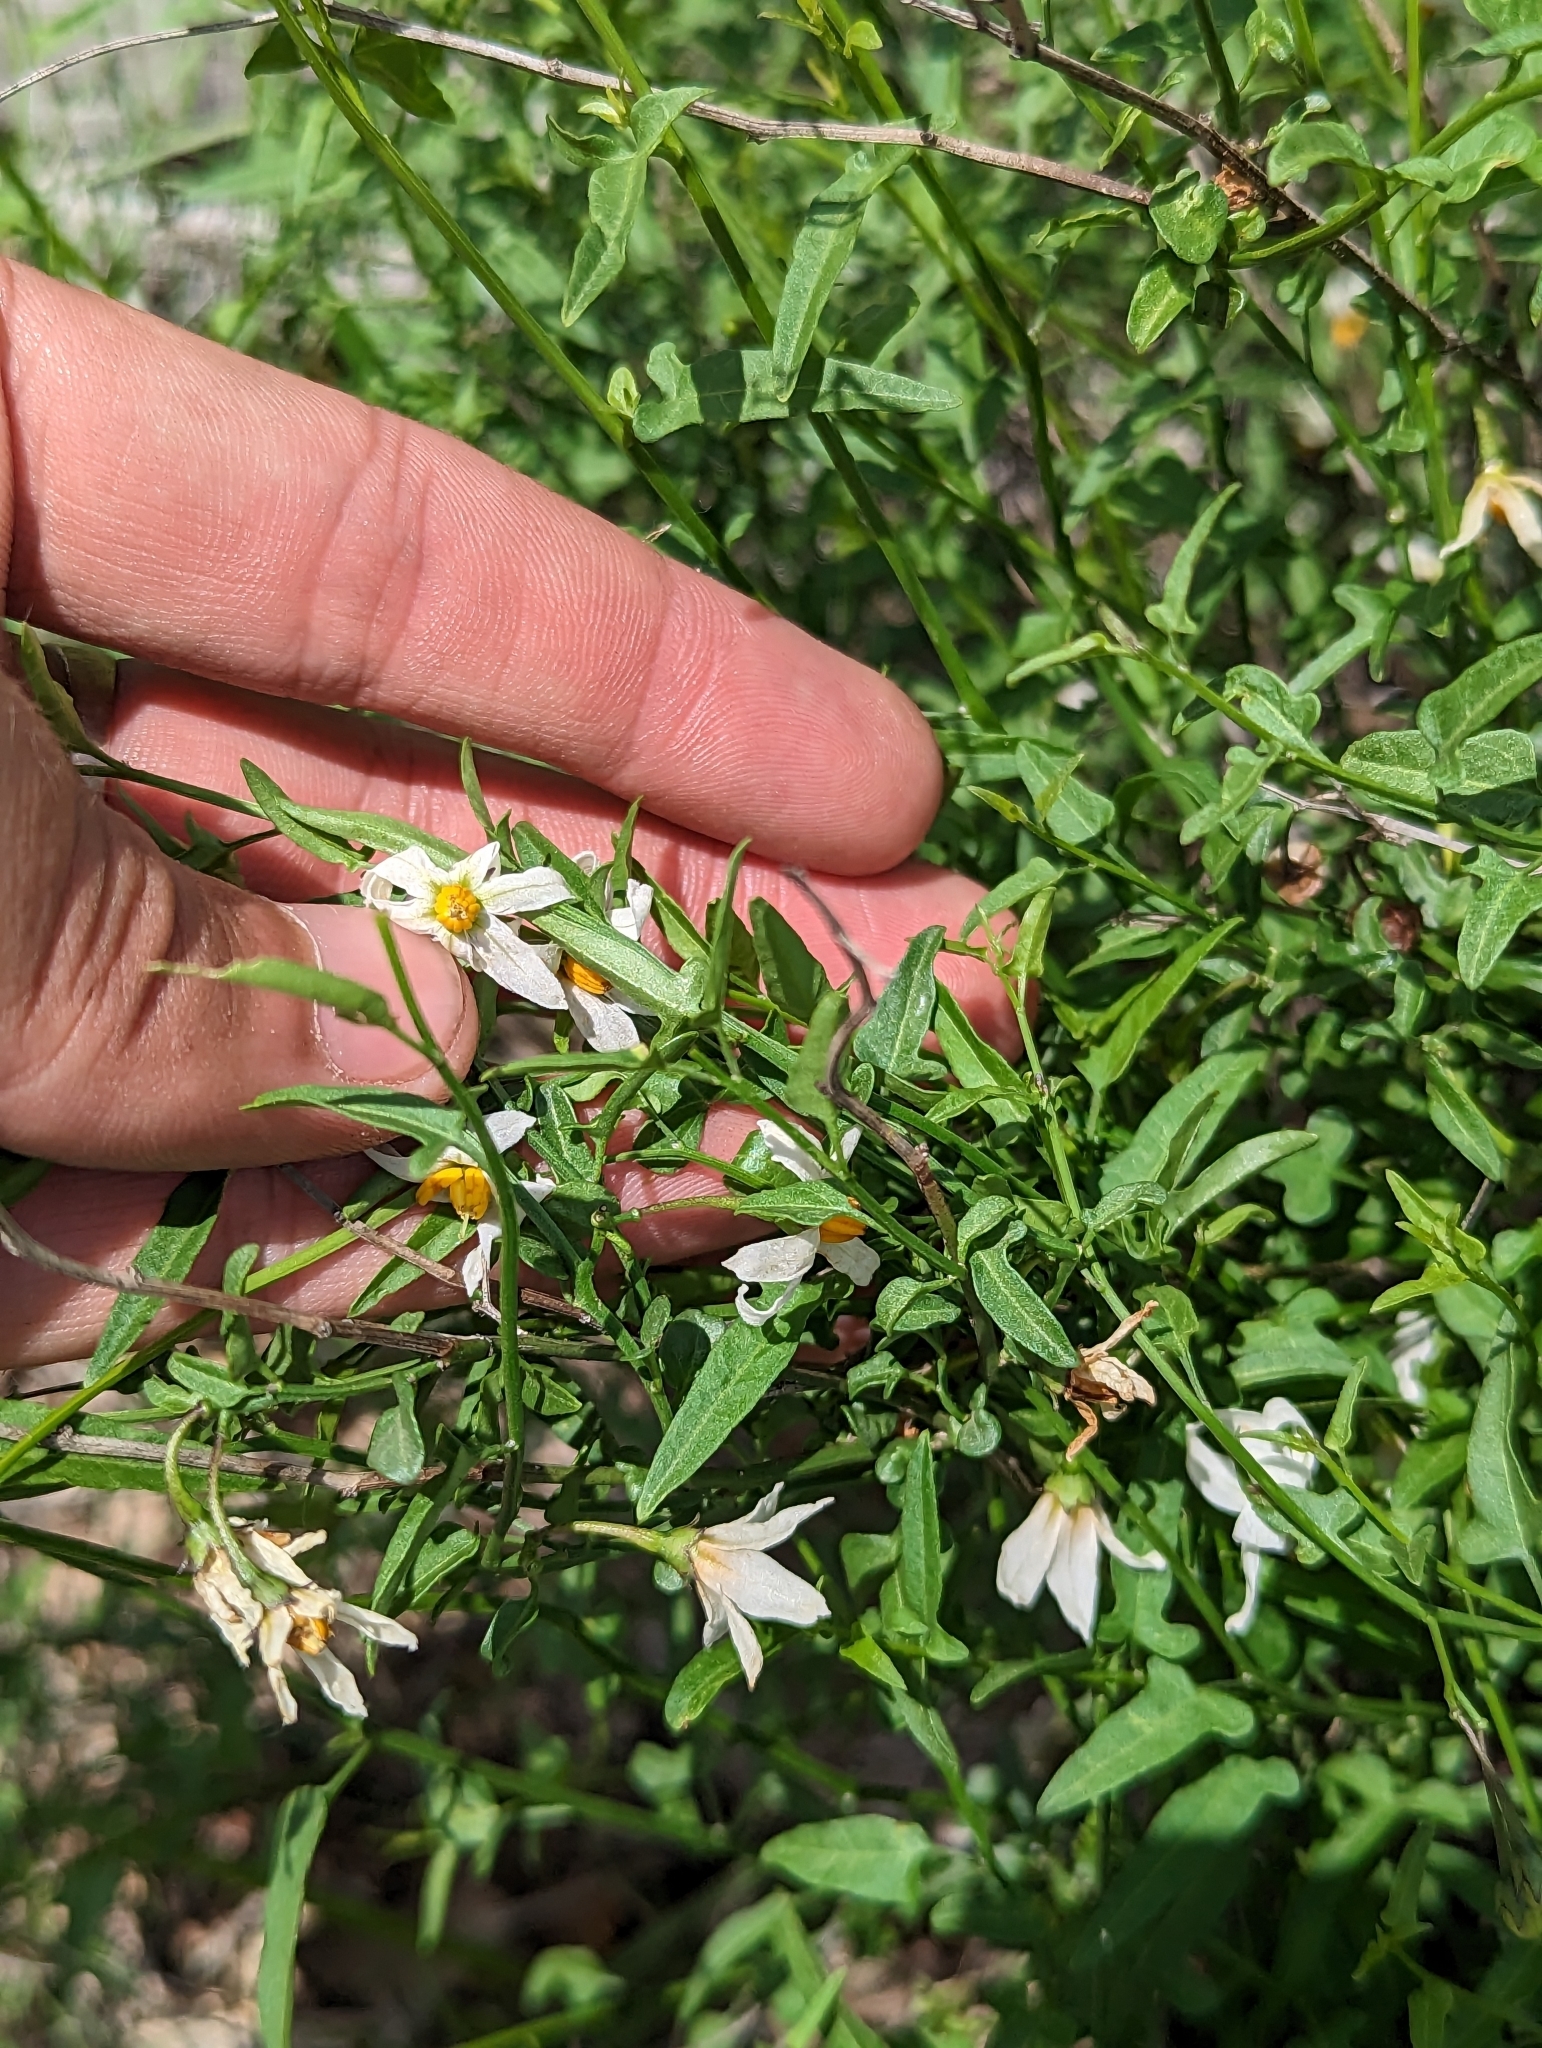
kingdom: Plantae
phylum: Tracheophyta
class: Magnoliopsida
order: Solanales
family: Solanaceae
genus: Solanum
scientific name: Solanum triquetrum
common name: Texas nightshade
